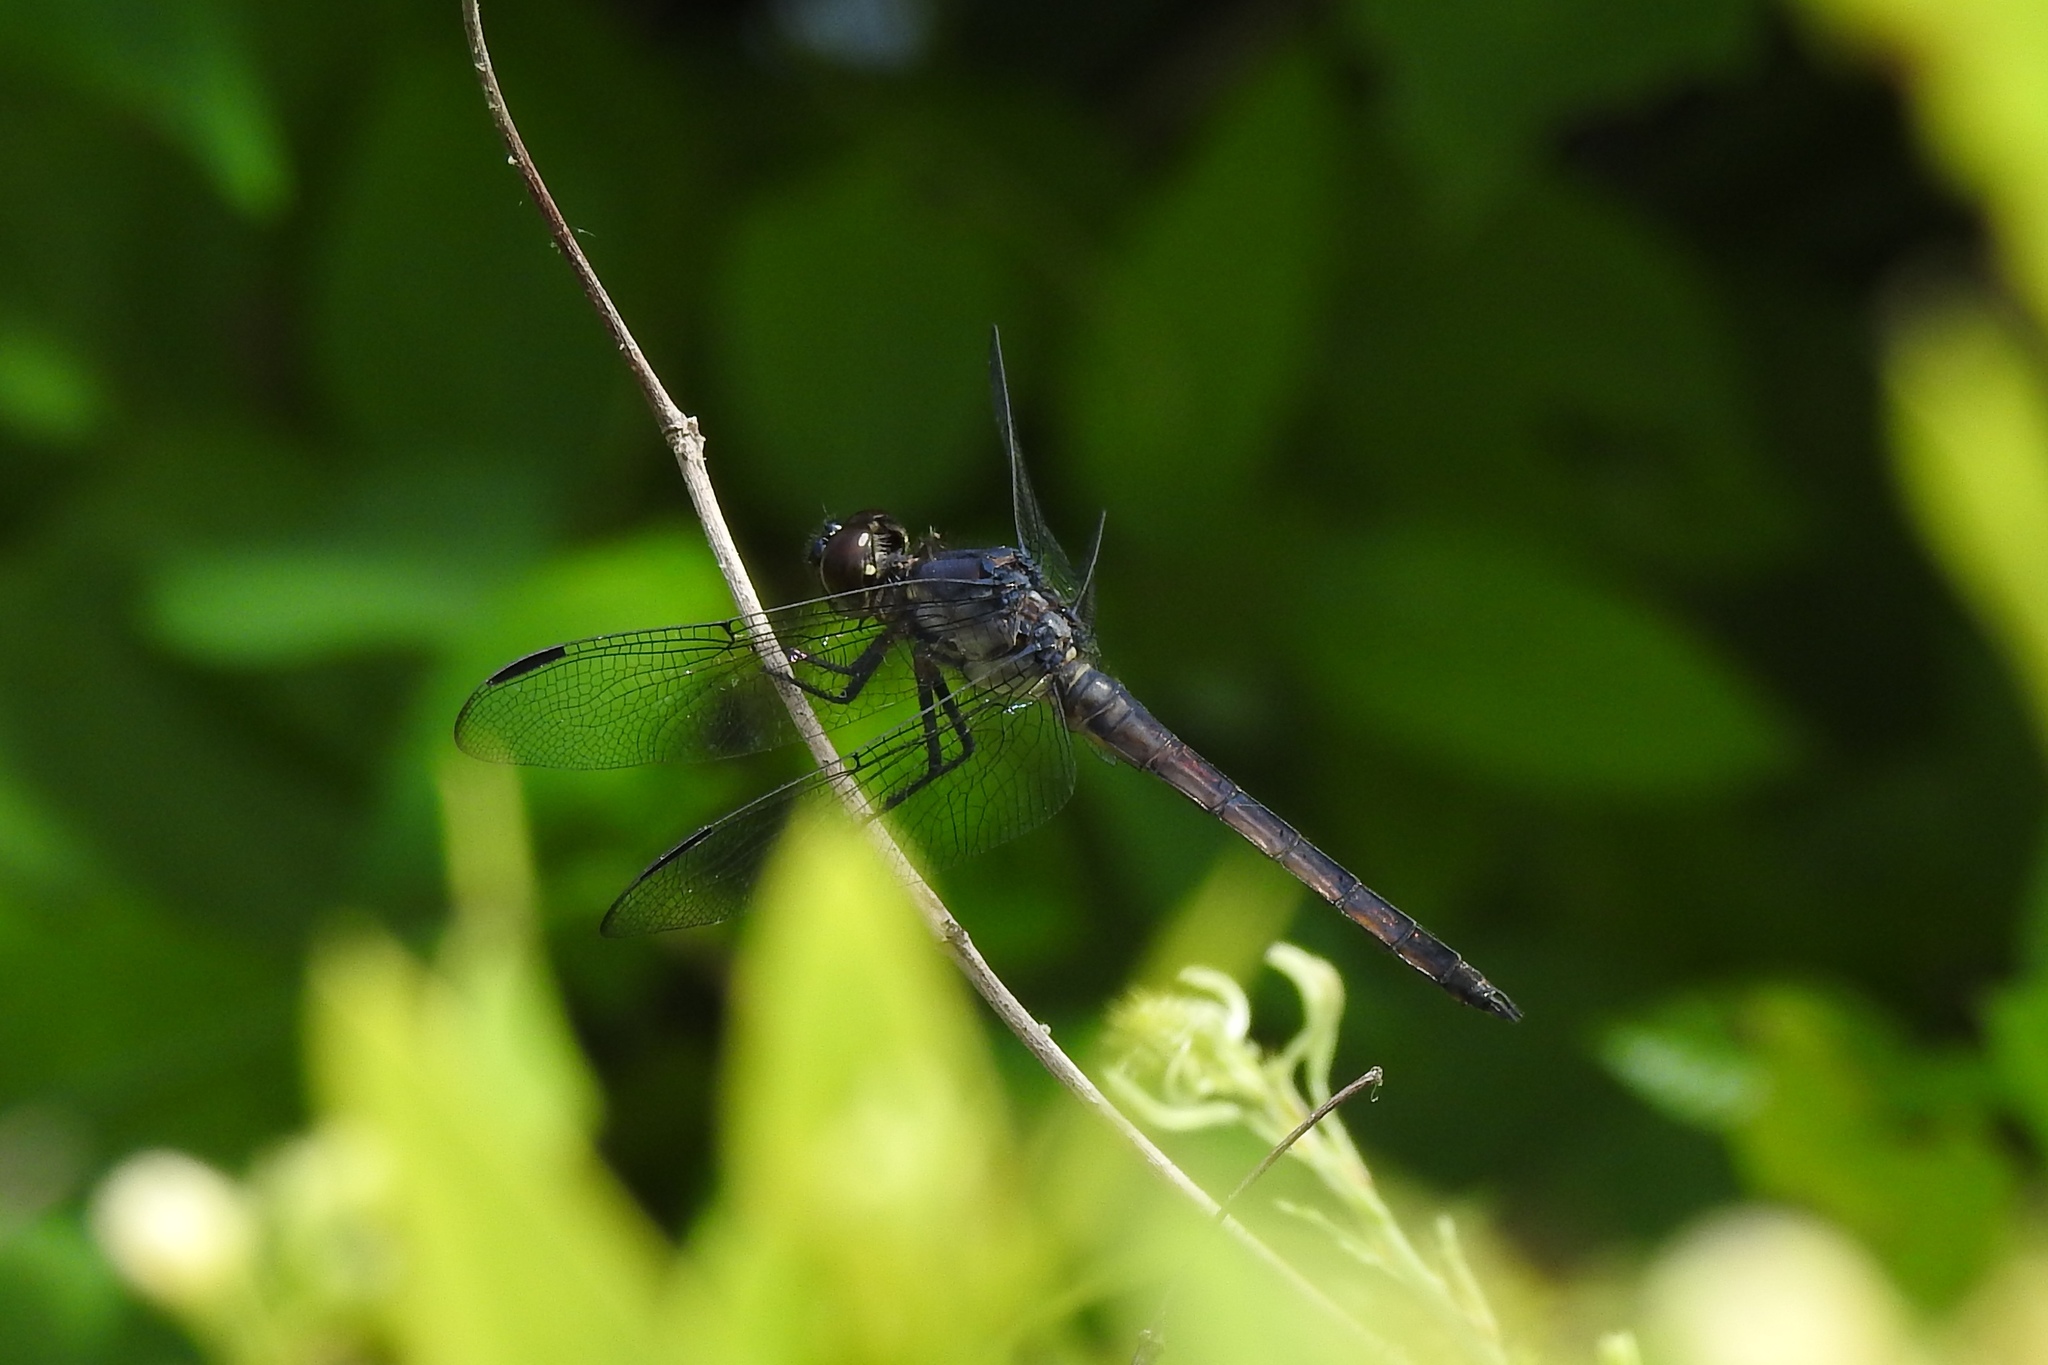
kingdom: Animalia
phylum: Arthropoda
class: Insecta
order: Odonata
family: Libellulidae
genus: Libellula
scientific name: Libellula incesta
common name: Slaty skimmer
